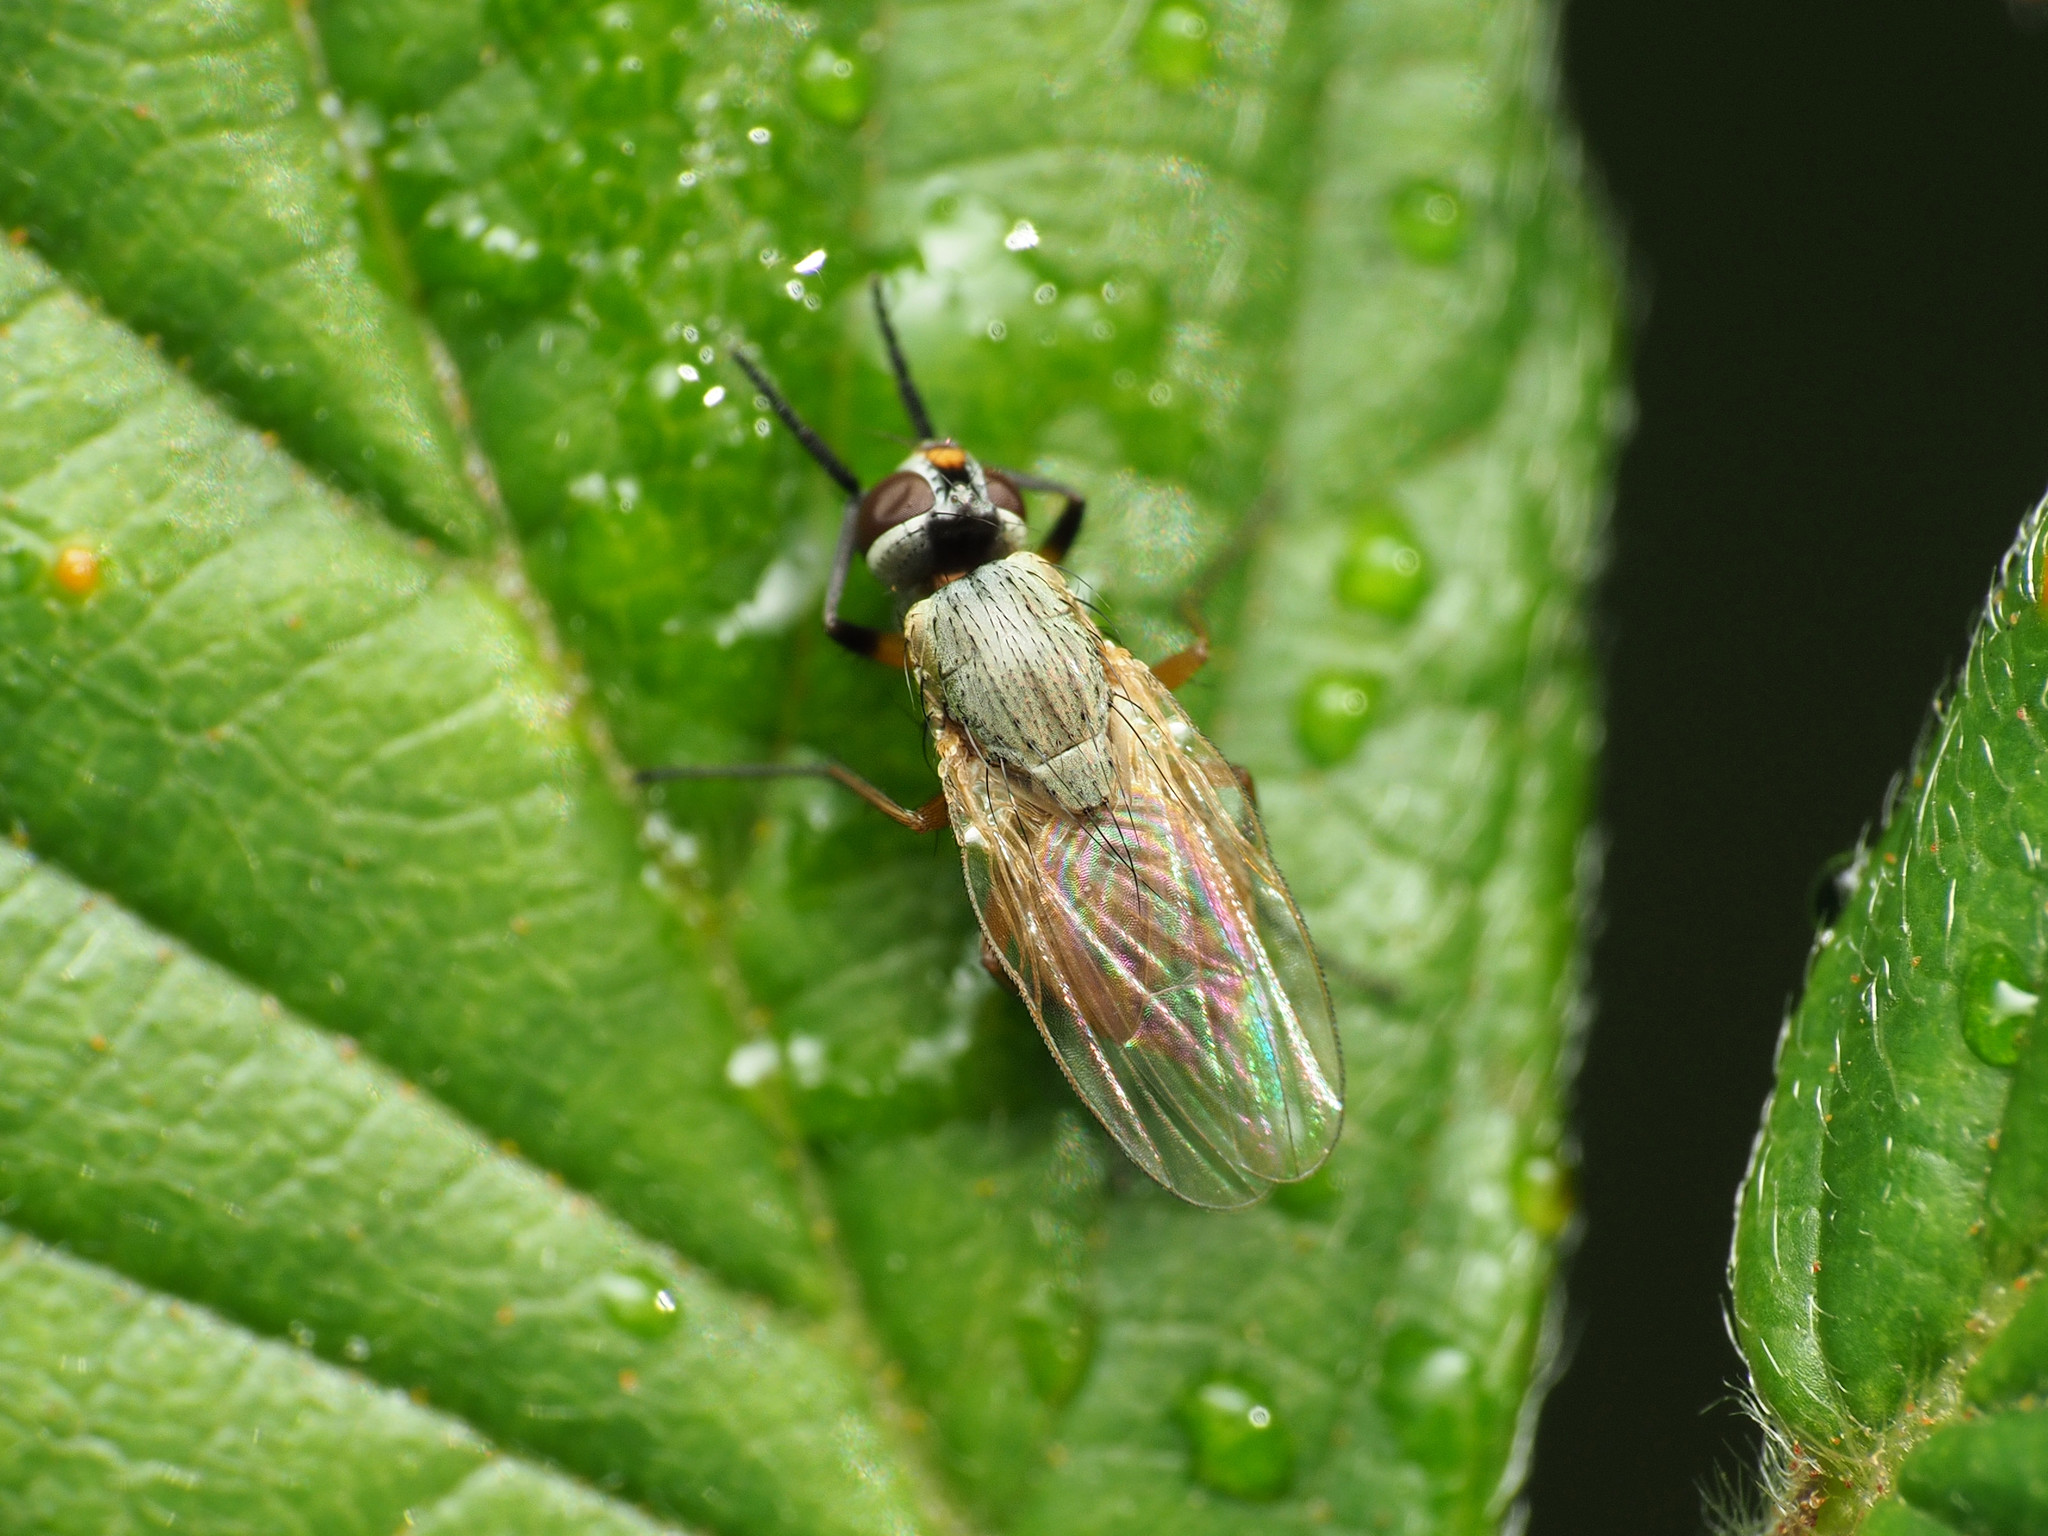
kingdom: Animalia
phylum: Arthropoda
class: Insecta
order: Diptera
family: Muscidae
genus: Atherigona
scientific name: Atherigona reversura
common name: Bermudagrass stem maggot
